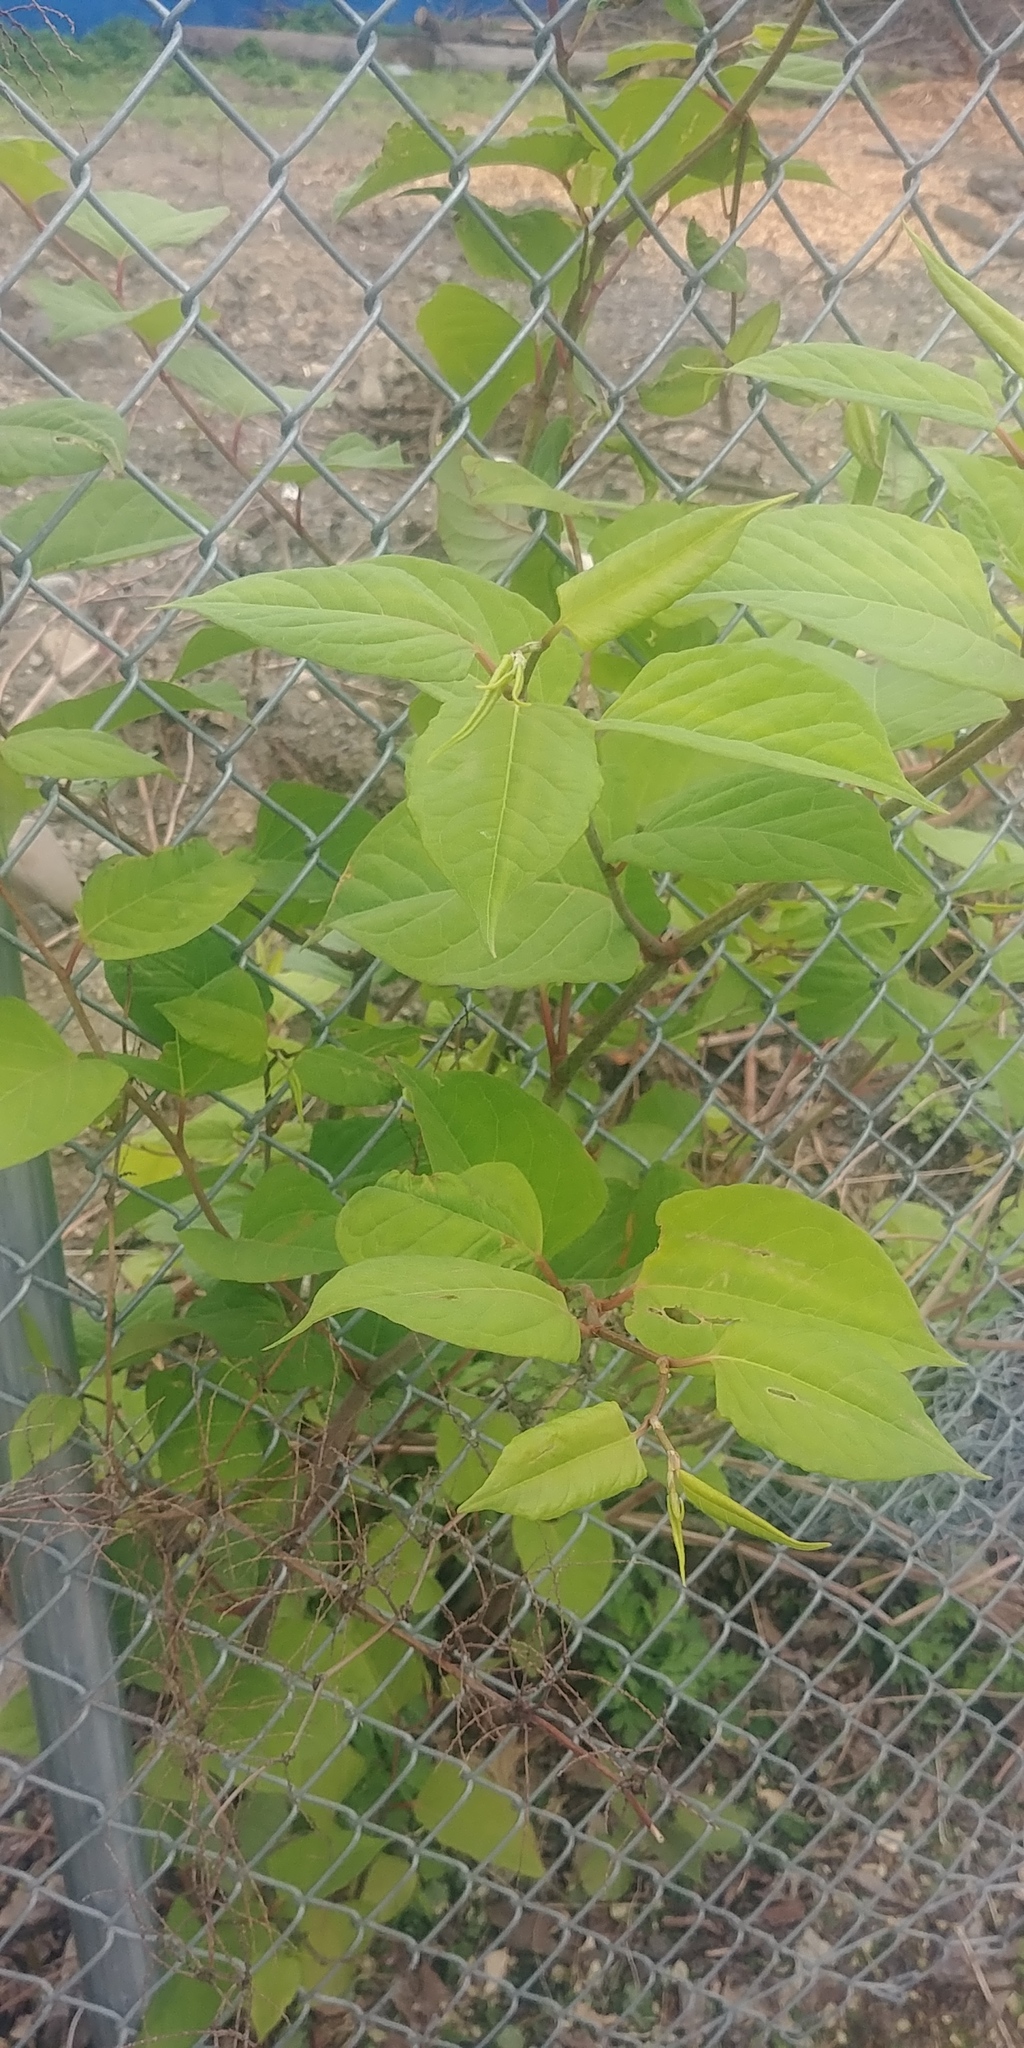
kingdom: Plantae
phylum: Tracheophyta
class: Magnoliopsida
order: Caryophyllales
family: Polygonaceae
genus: Reynoutria
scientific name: Reynoutria japonica
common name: Japanese knotweed
